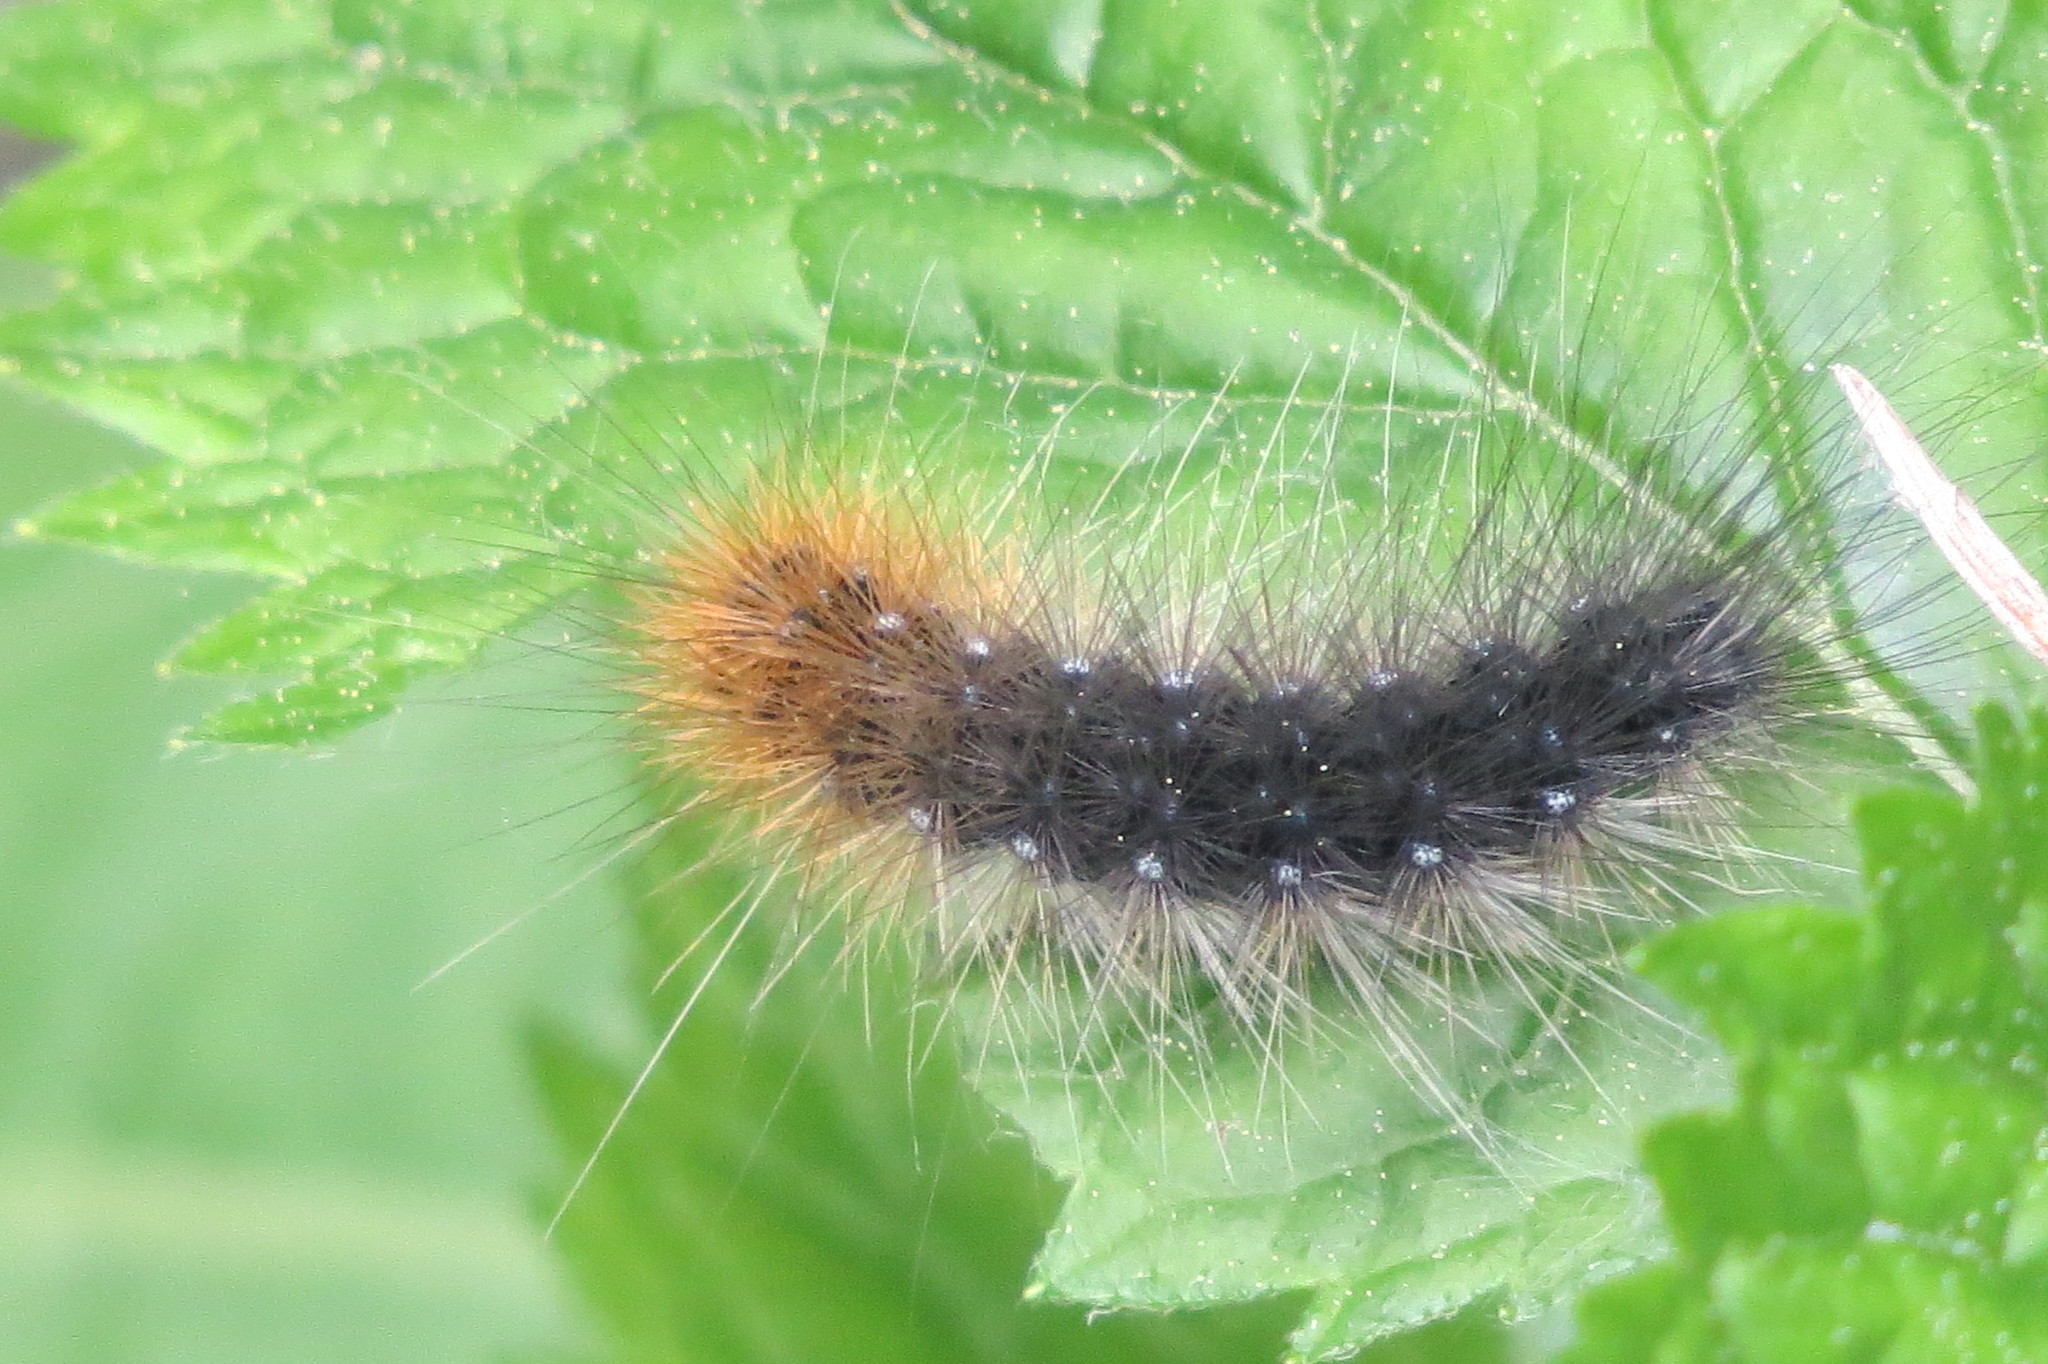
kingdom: Animalia
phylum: Arthropoda
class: Insecta
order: Lepidoptera
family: Erebidae
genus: Arctia
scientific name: Arctia caja
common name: Garden tiger
